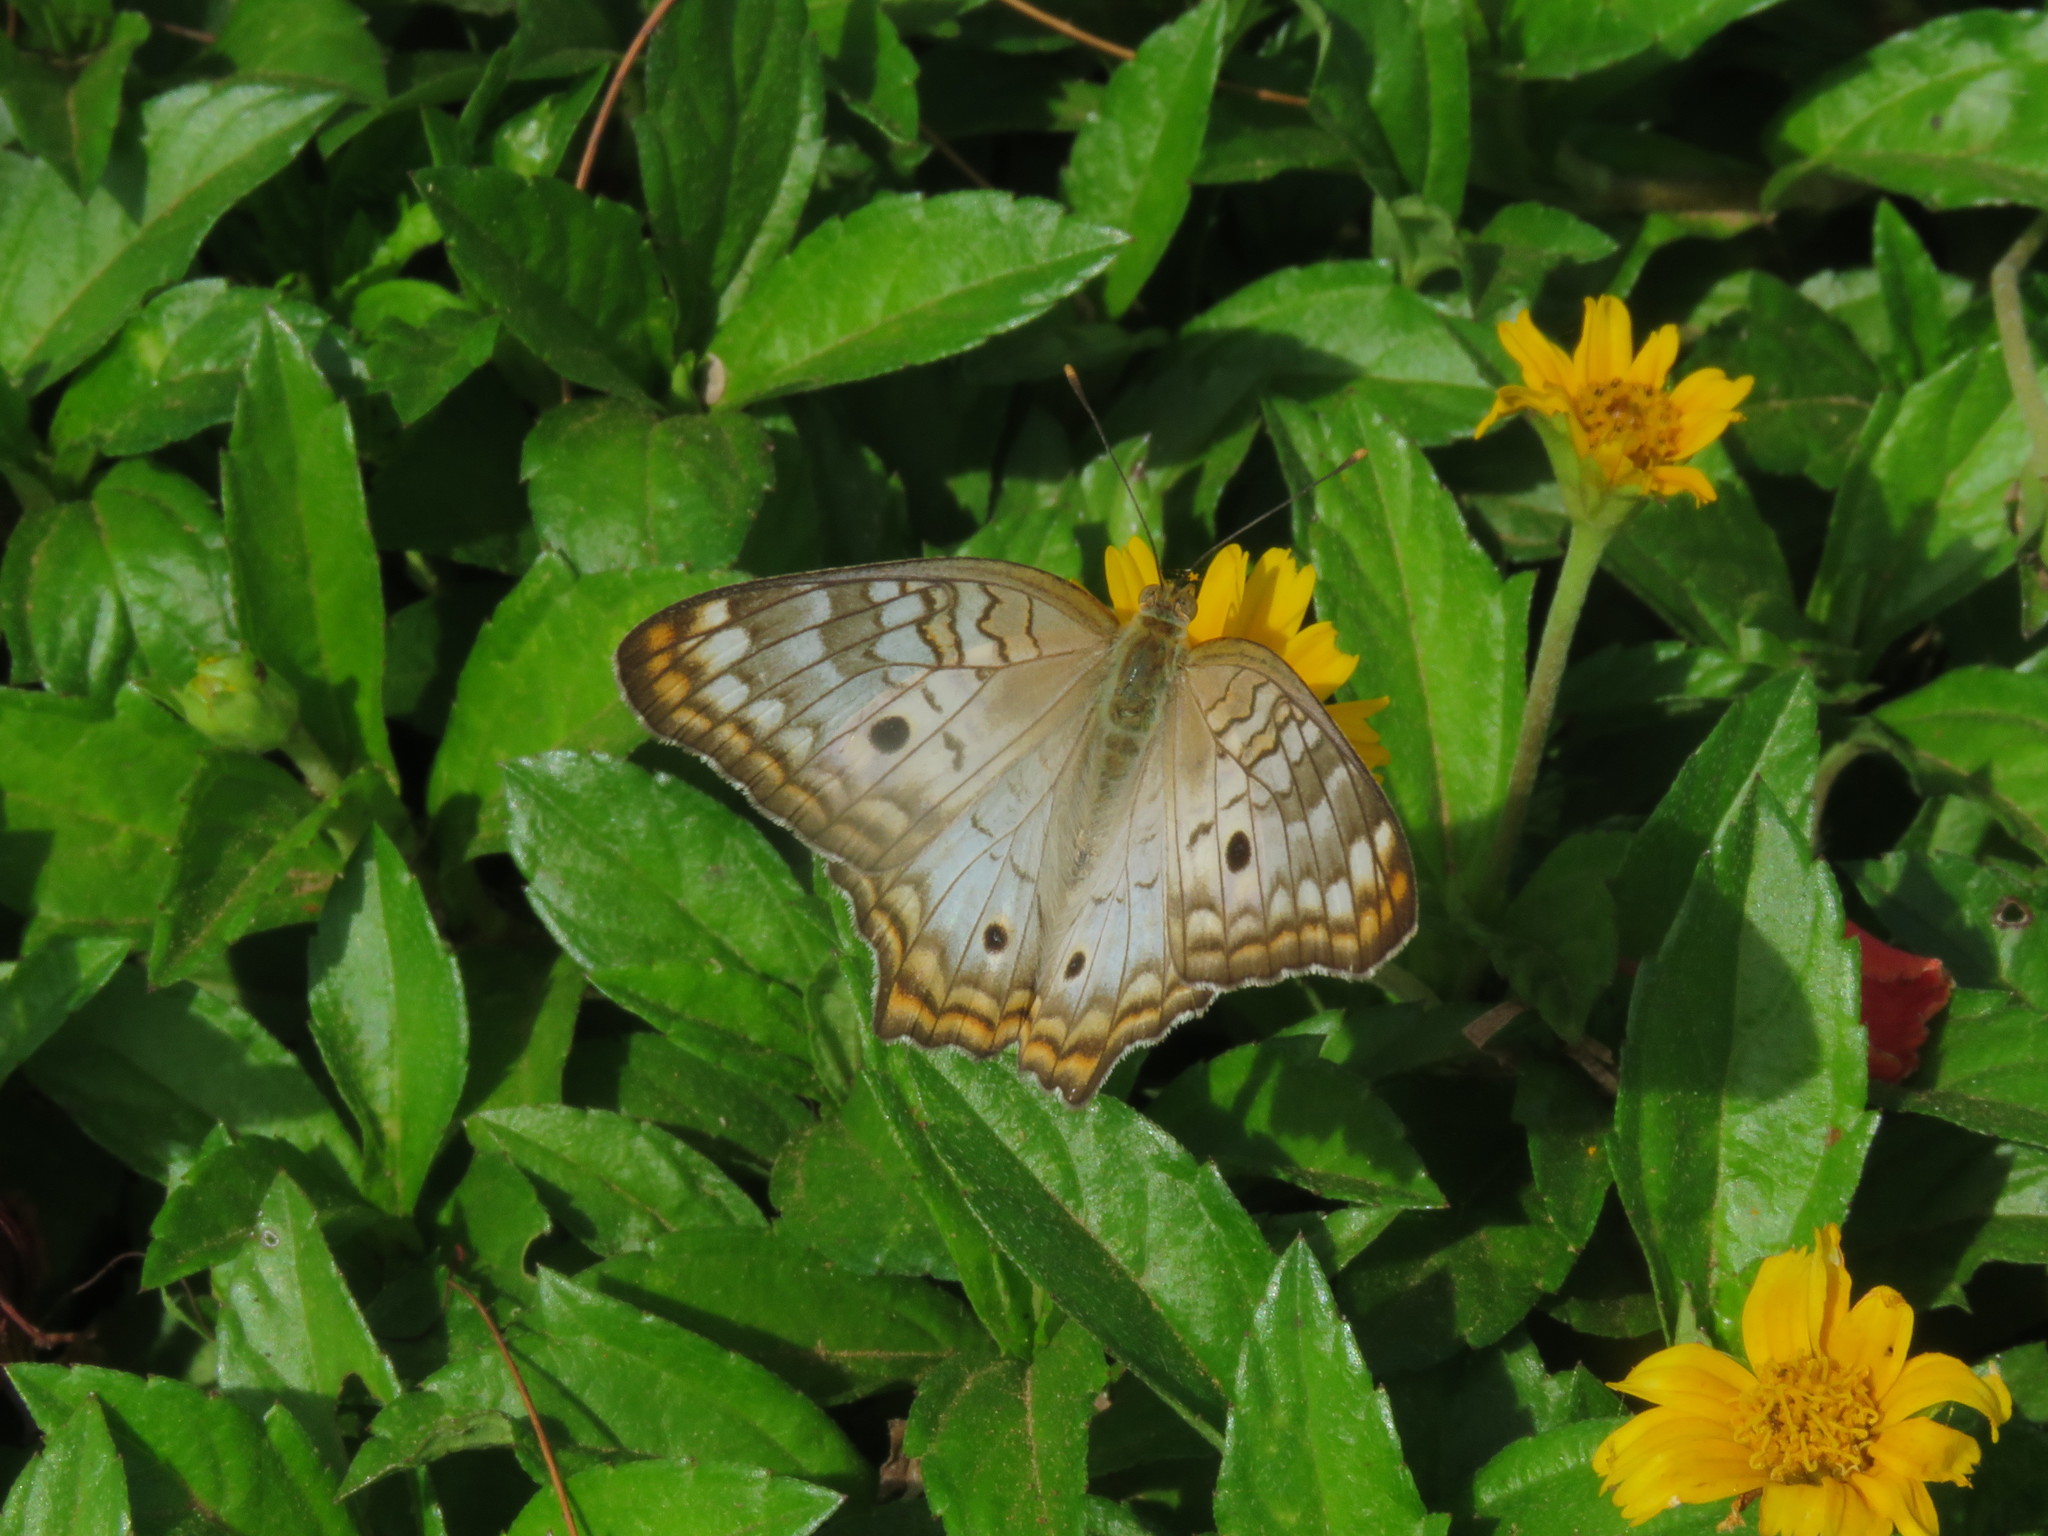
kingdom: Animalia
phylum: Arthropoda
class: Insecta
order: Lepidoptera
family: Nymphalidae
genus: Anartia
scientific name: Anartia jatrophae
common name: White peacock
